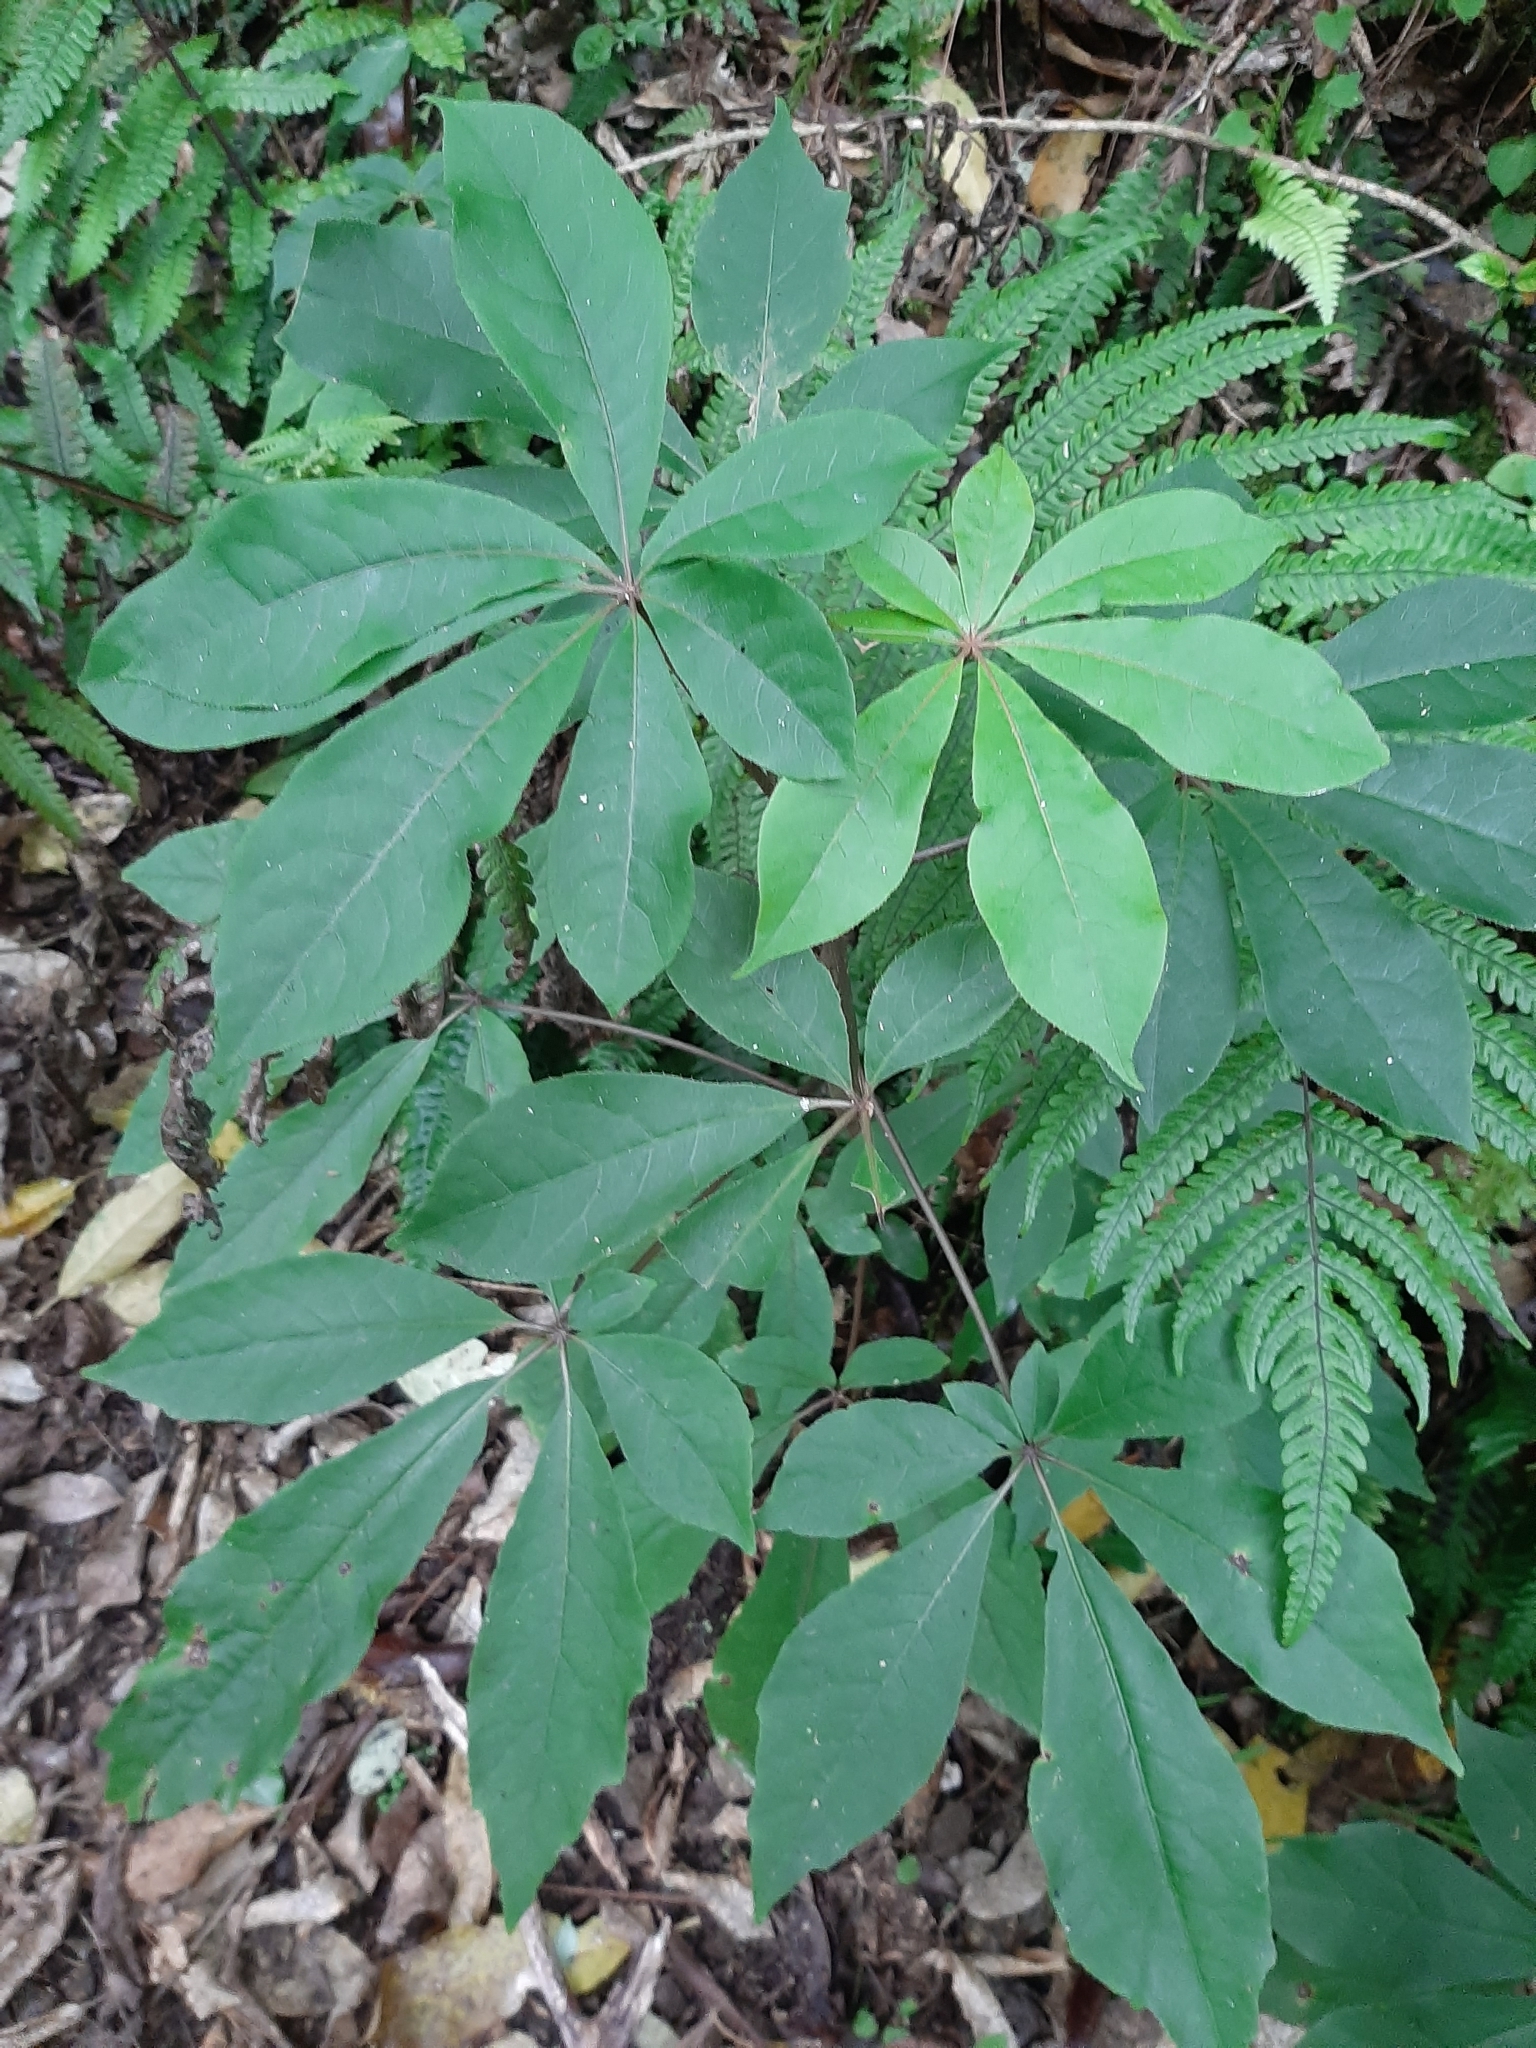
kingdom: Plantae
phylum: Tracheophyta
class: Magnoliopsida
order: Apiales
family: Araliaceae
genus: Schefflera
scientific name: Schefflera digitata
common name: Pate
